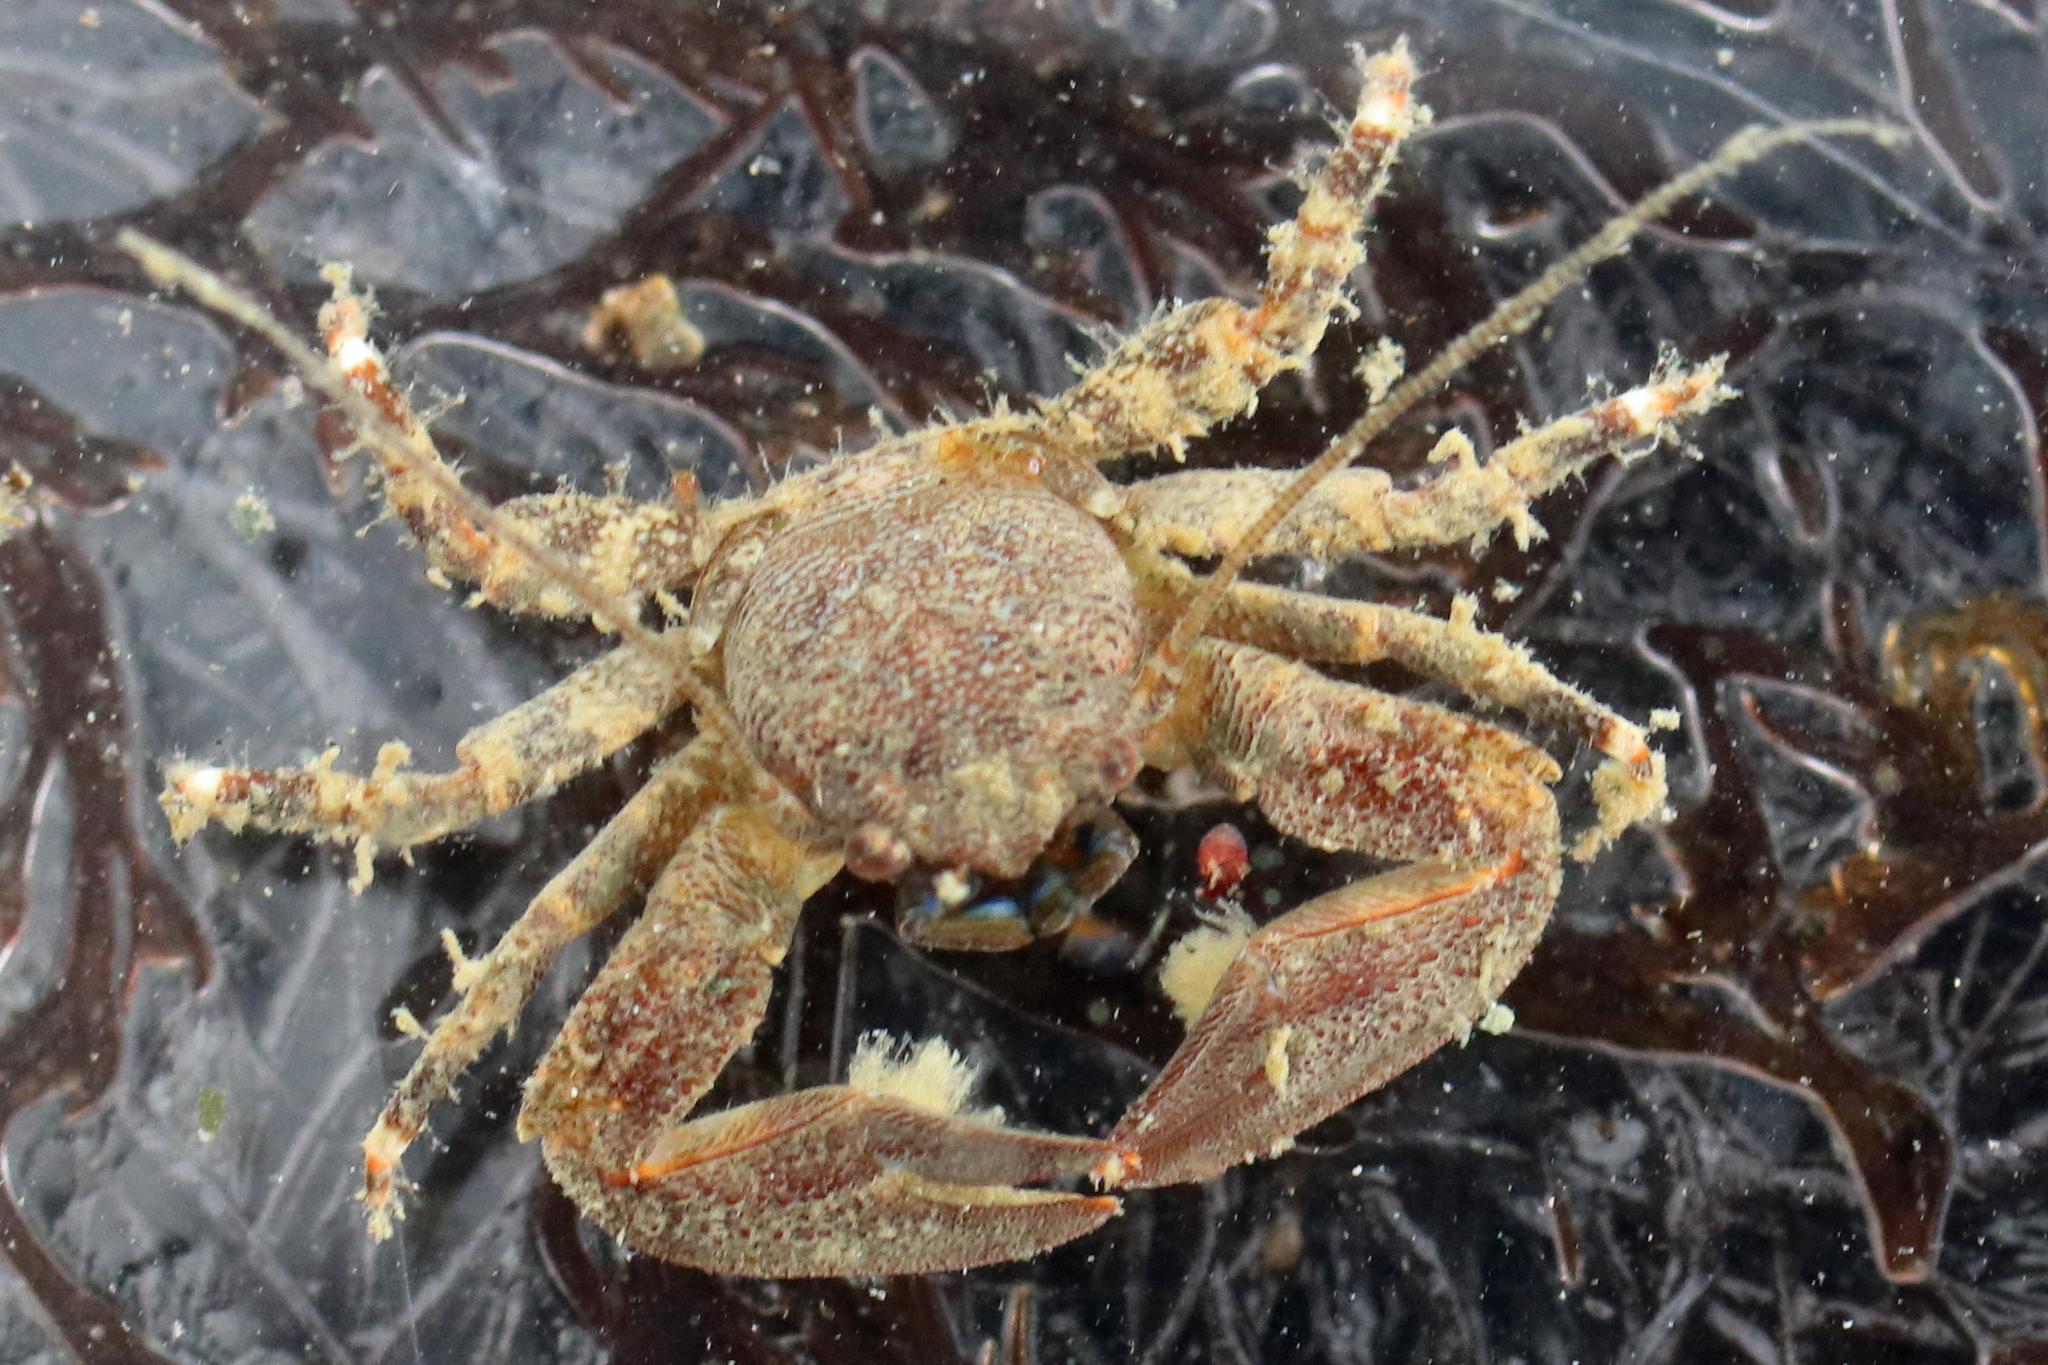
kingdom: Animalia
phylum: Arthropoda
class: Malacostraca
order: Decapoda
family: Porcellanidae
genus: Petrolisthes
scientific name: Petrolisthes eriomerus
